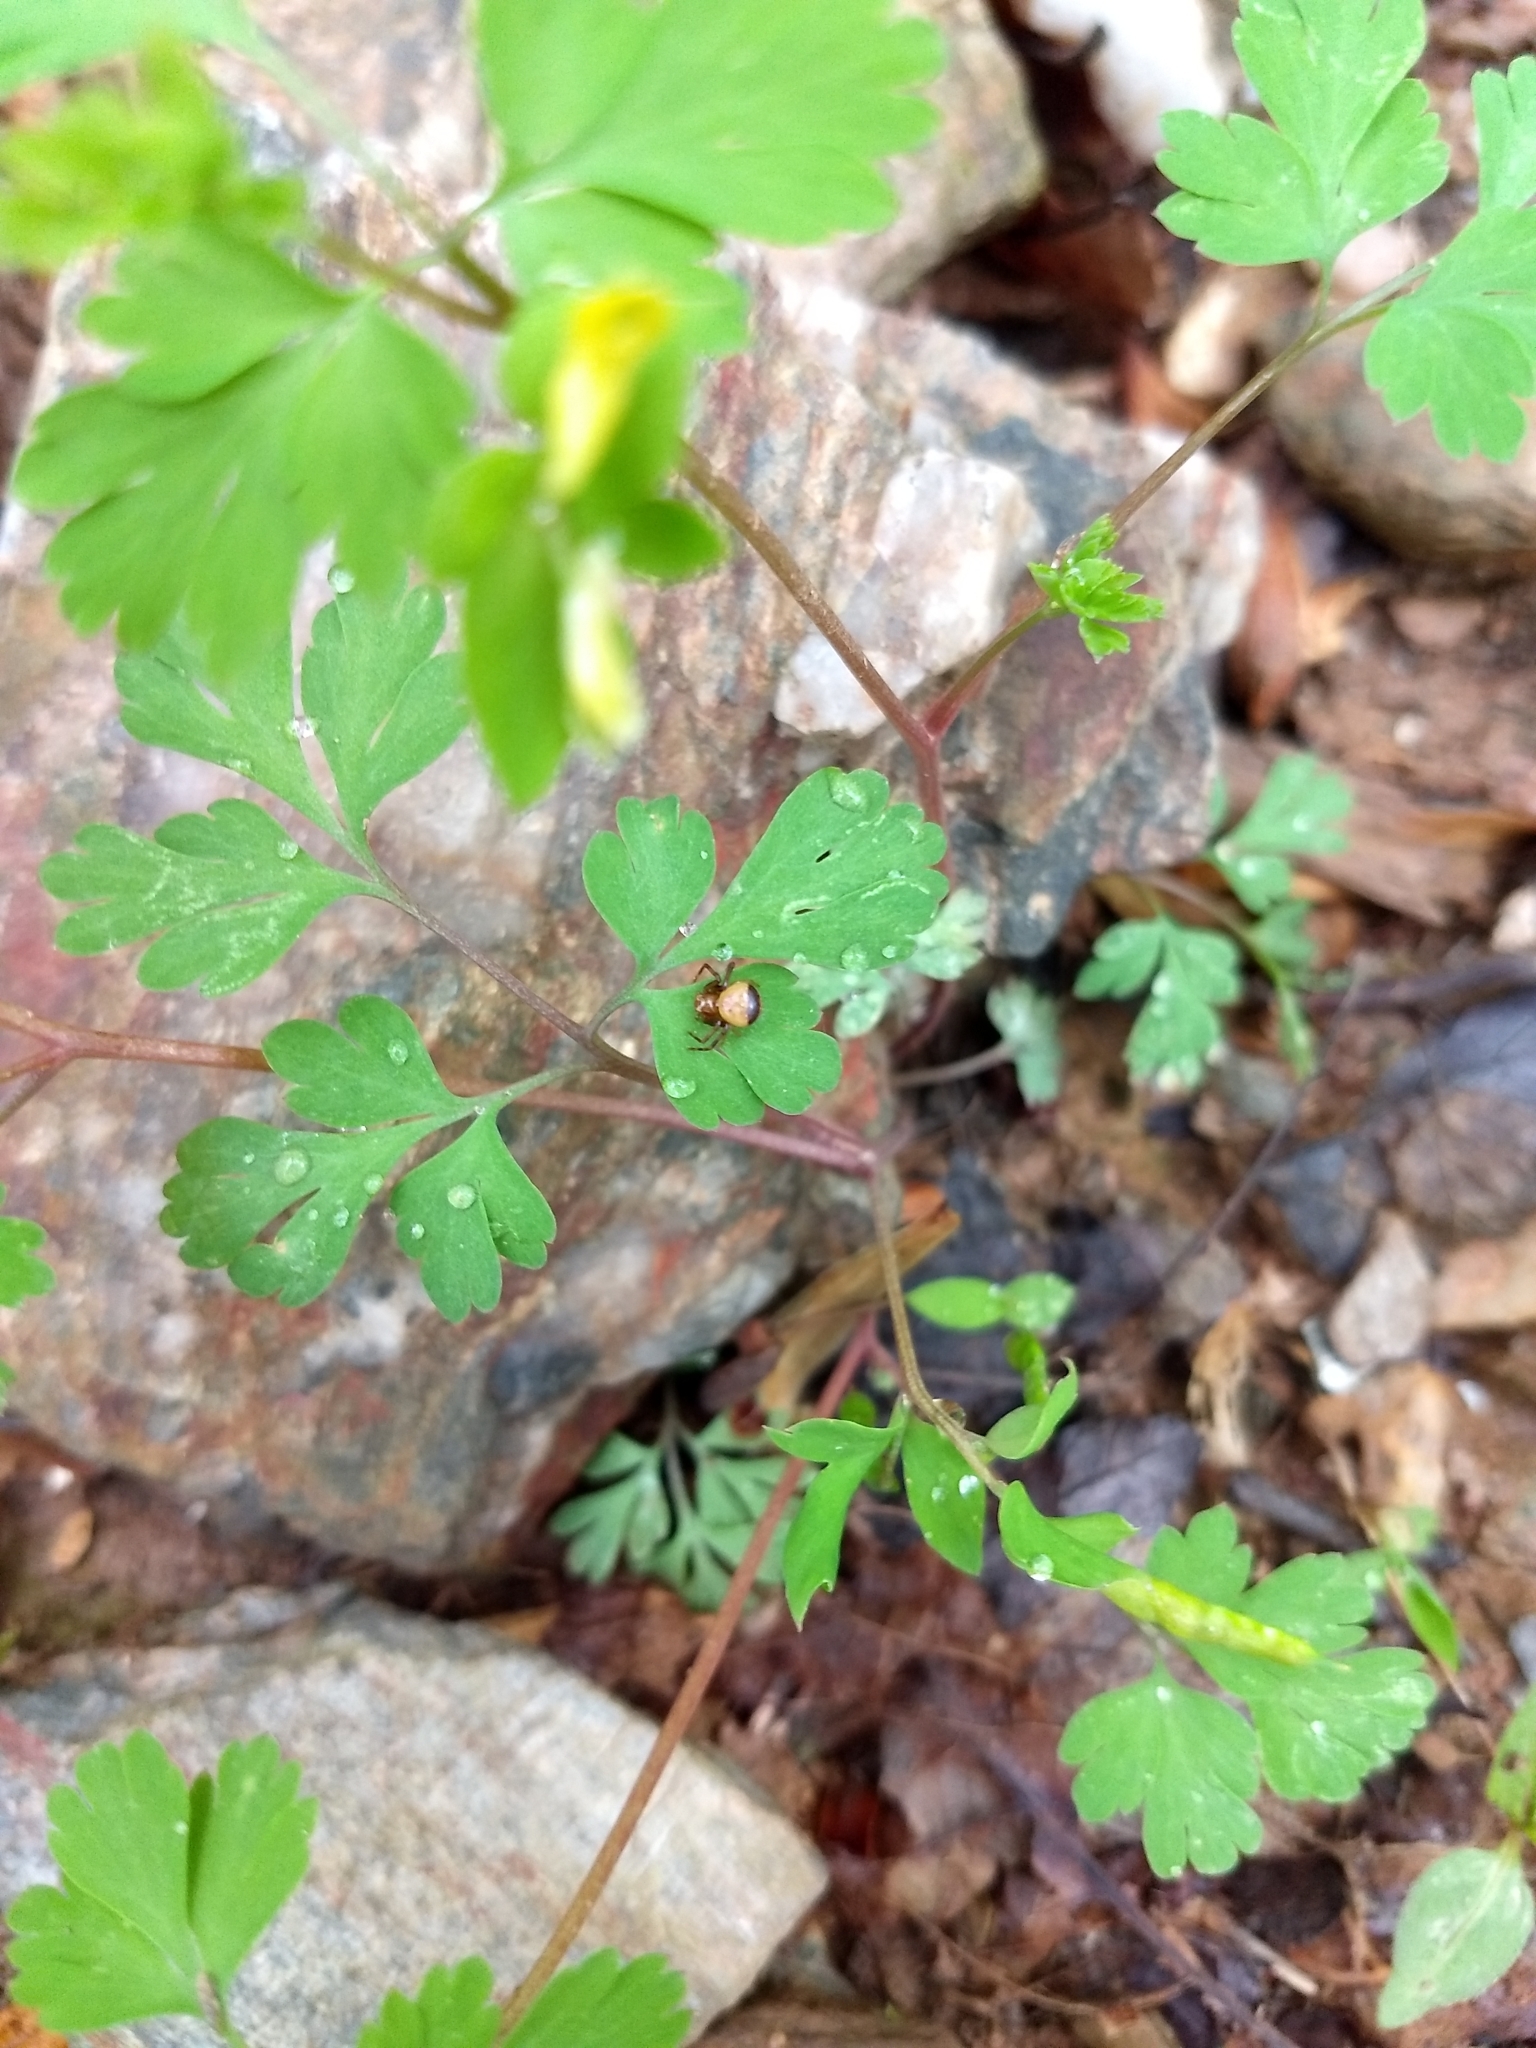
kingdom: Plantae
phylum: Tracheophyta
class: Magnoliopsida
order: Ranunculales
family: Papaveraceae
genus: Corydalis
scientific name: Corydalis flavula
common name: Yellow corydalis
